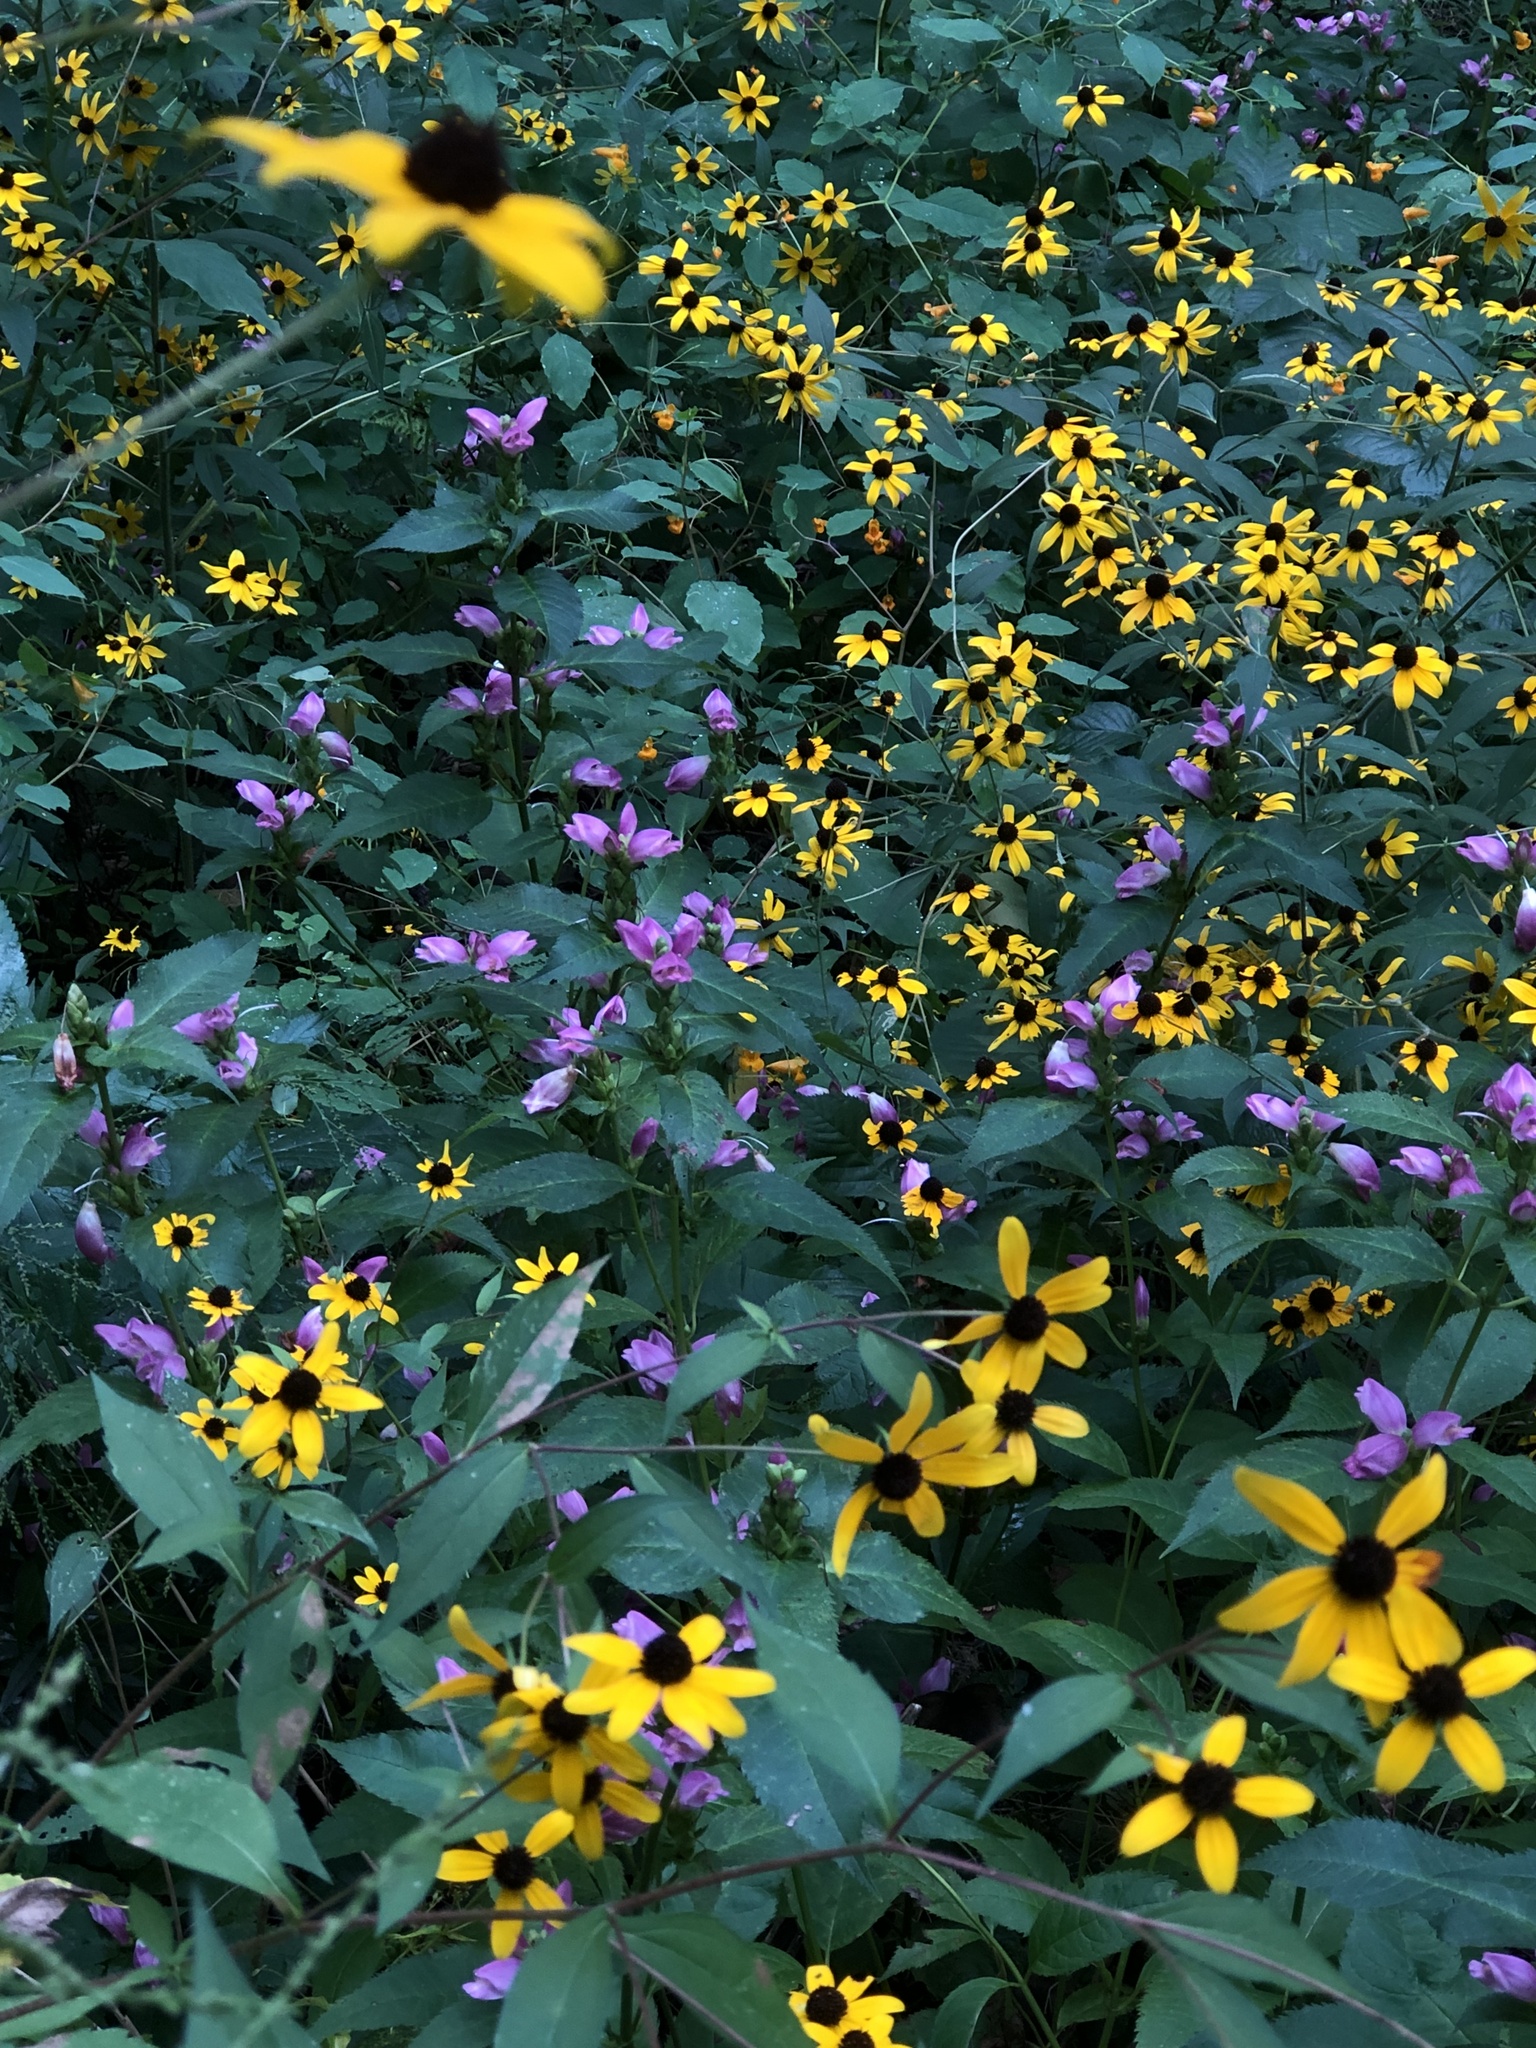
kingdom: Plantae
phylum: Tracheophyta
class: Magnoliopsida
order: Lamiales
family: Plantaginaceae
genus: Chelone
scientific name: Chelone lyonii
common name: Pink turtlehead
